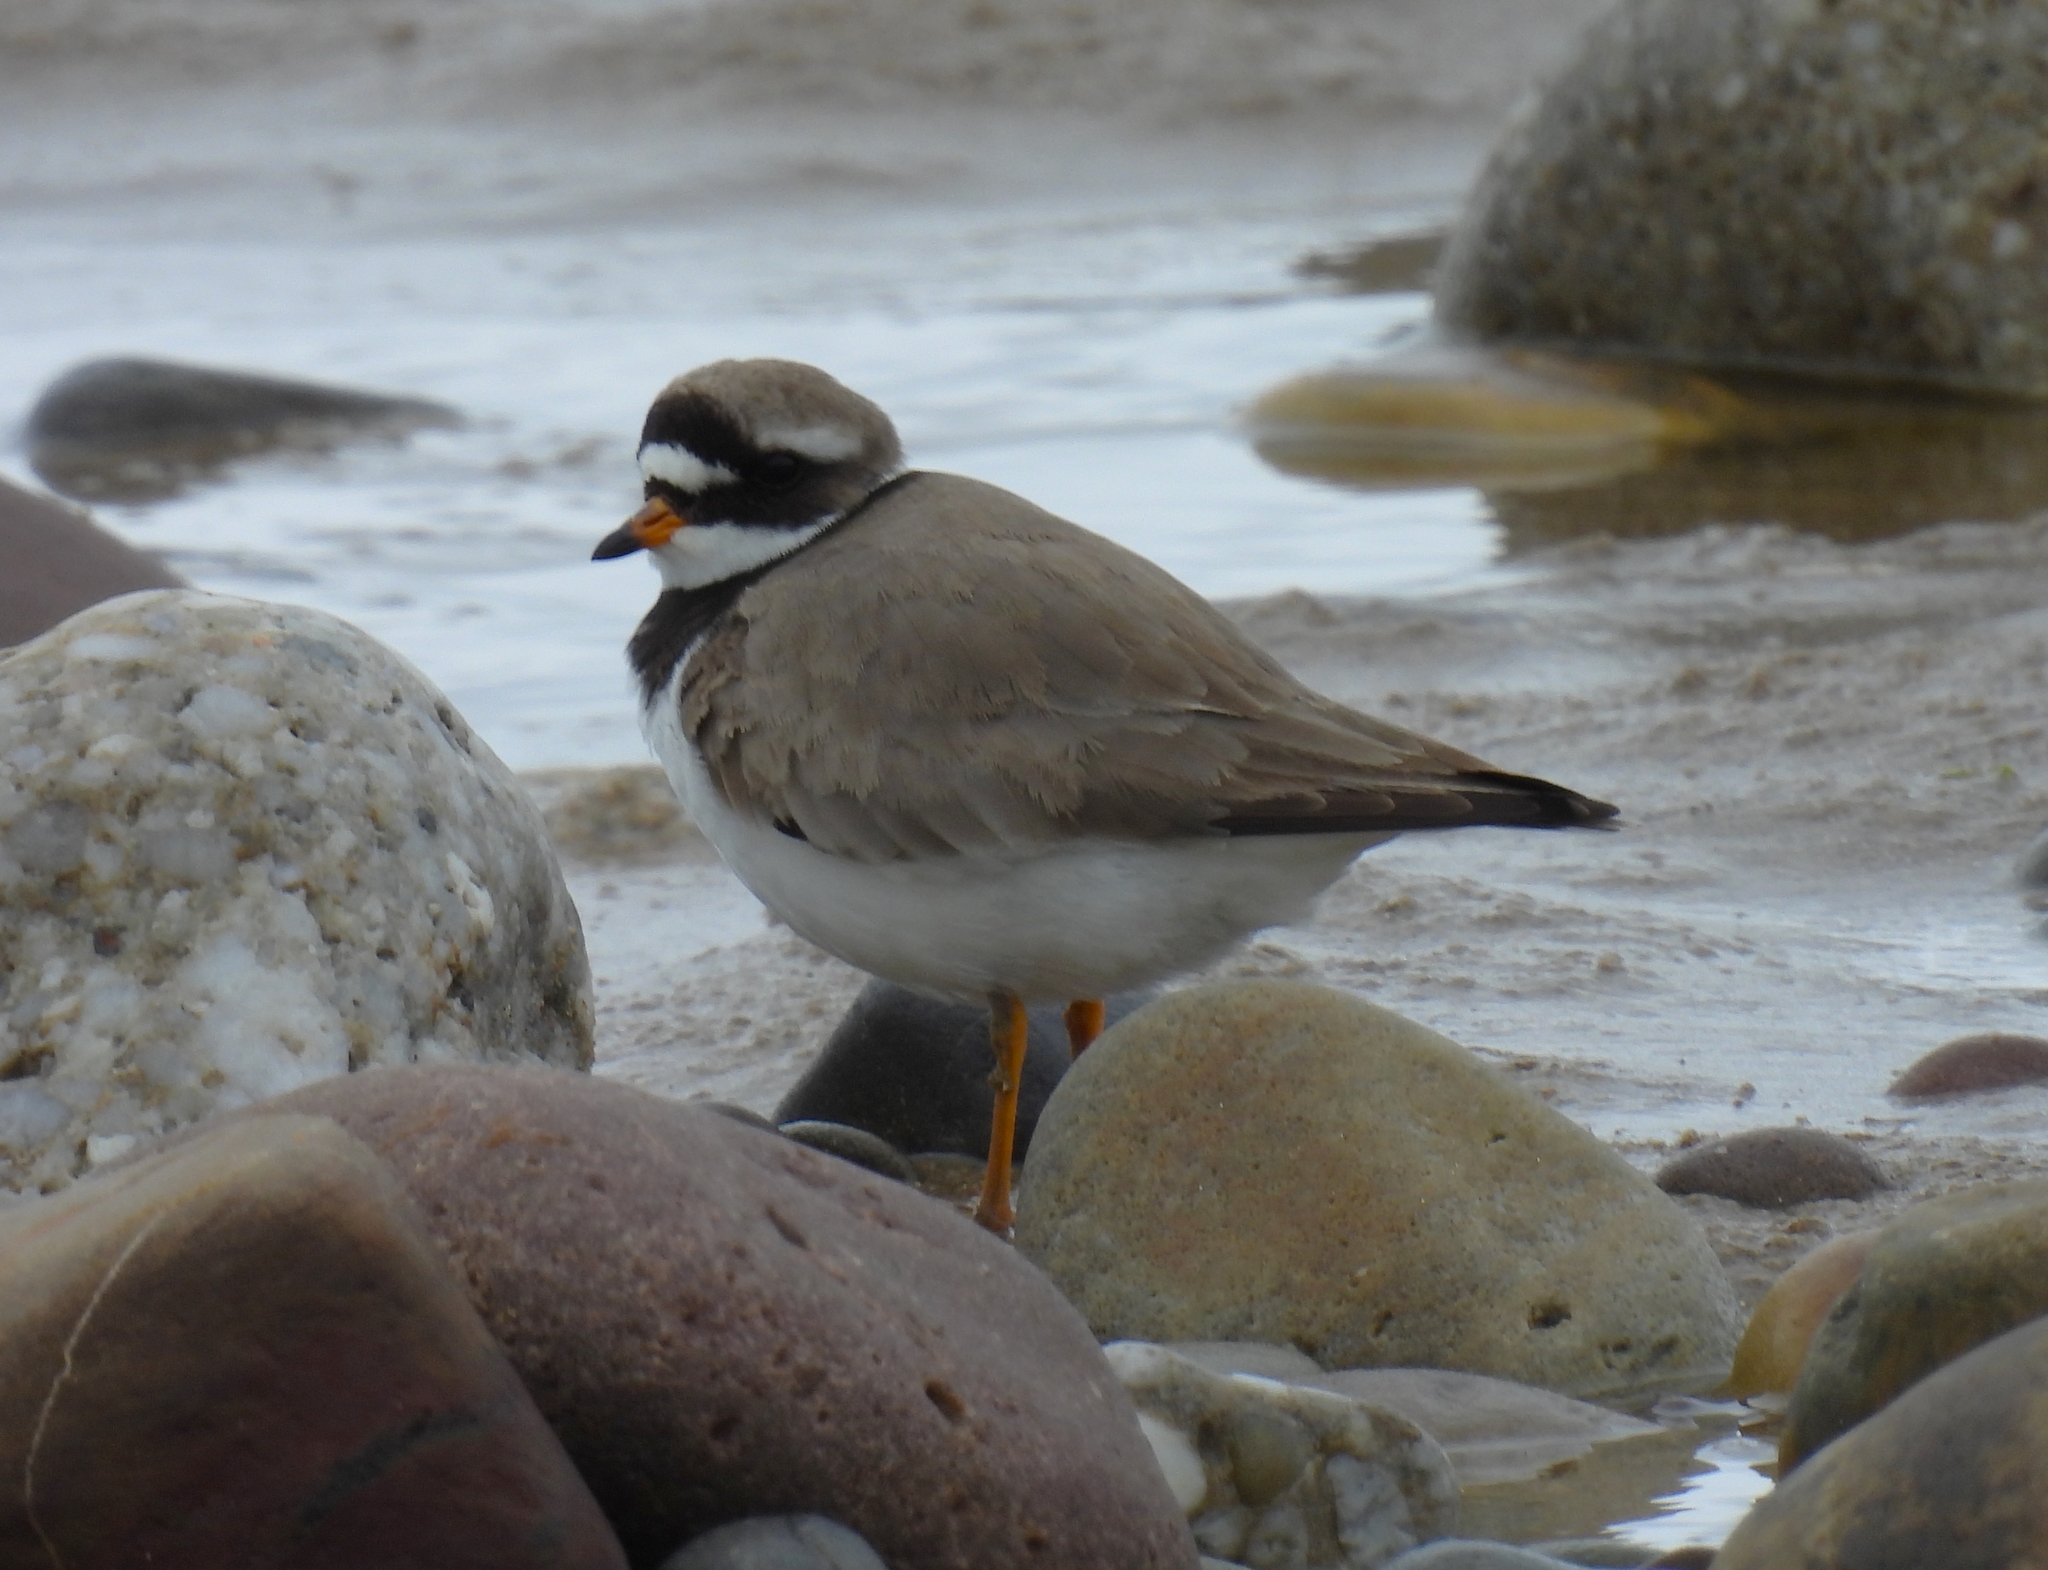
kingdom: Animalia
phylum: Chordata
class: Aves
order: Charadriiformes
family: Charadriidae
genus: Charadrius
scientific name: Charadrius hiaticula
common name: Common ringed plover
